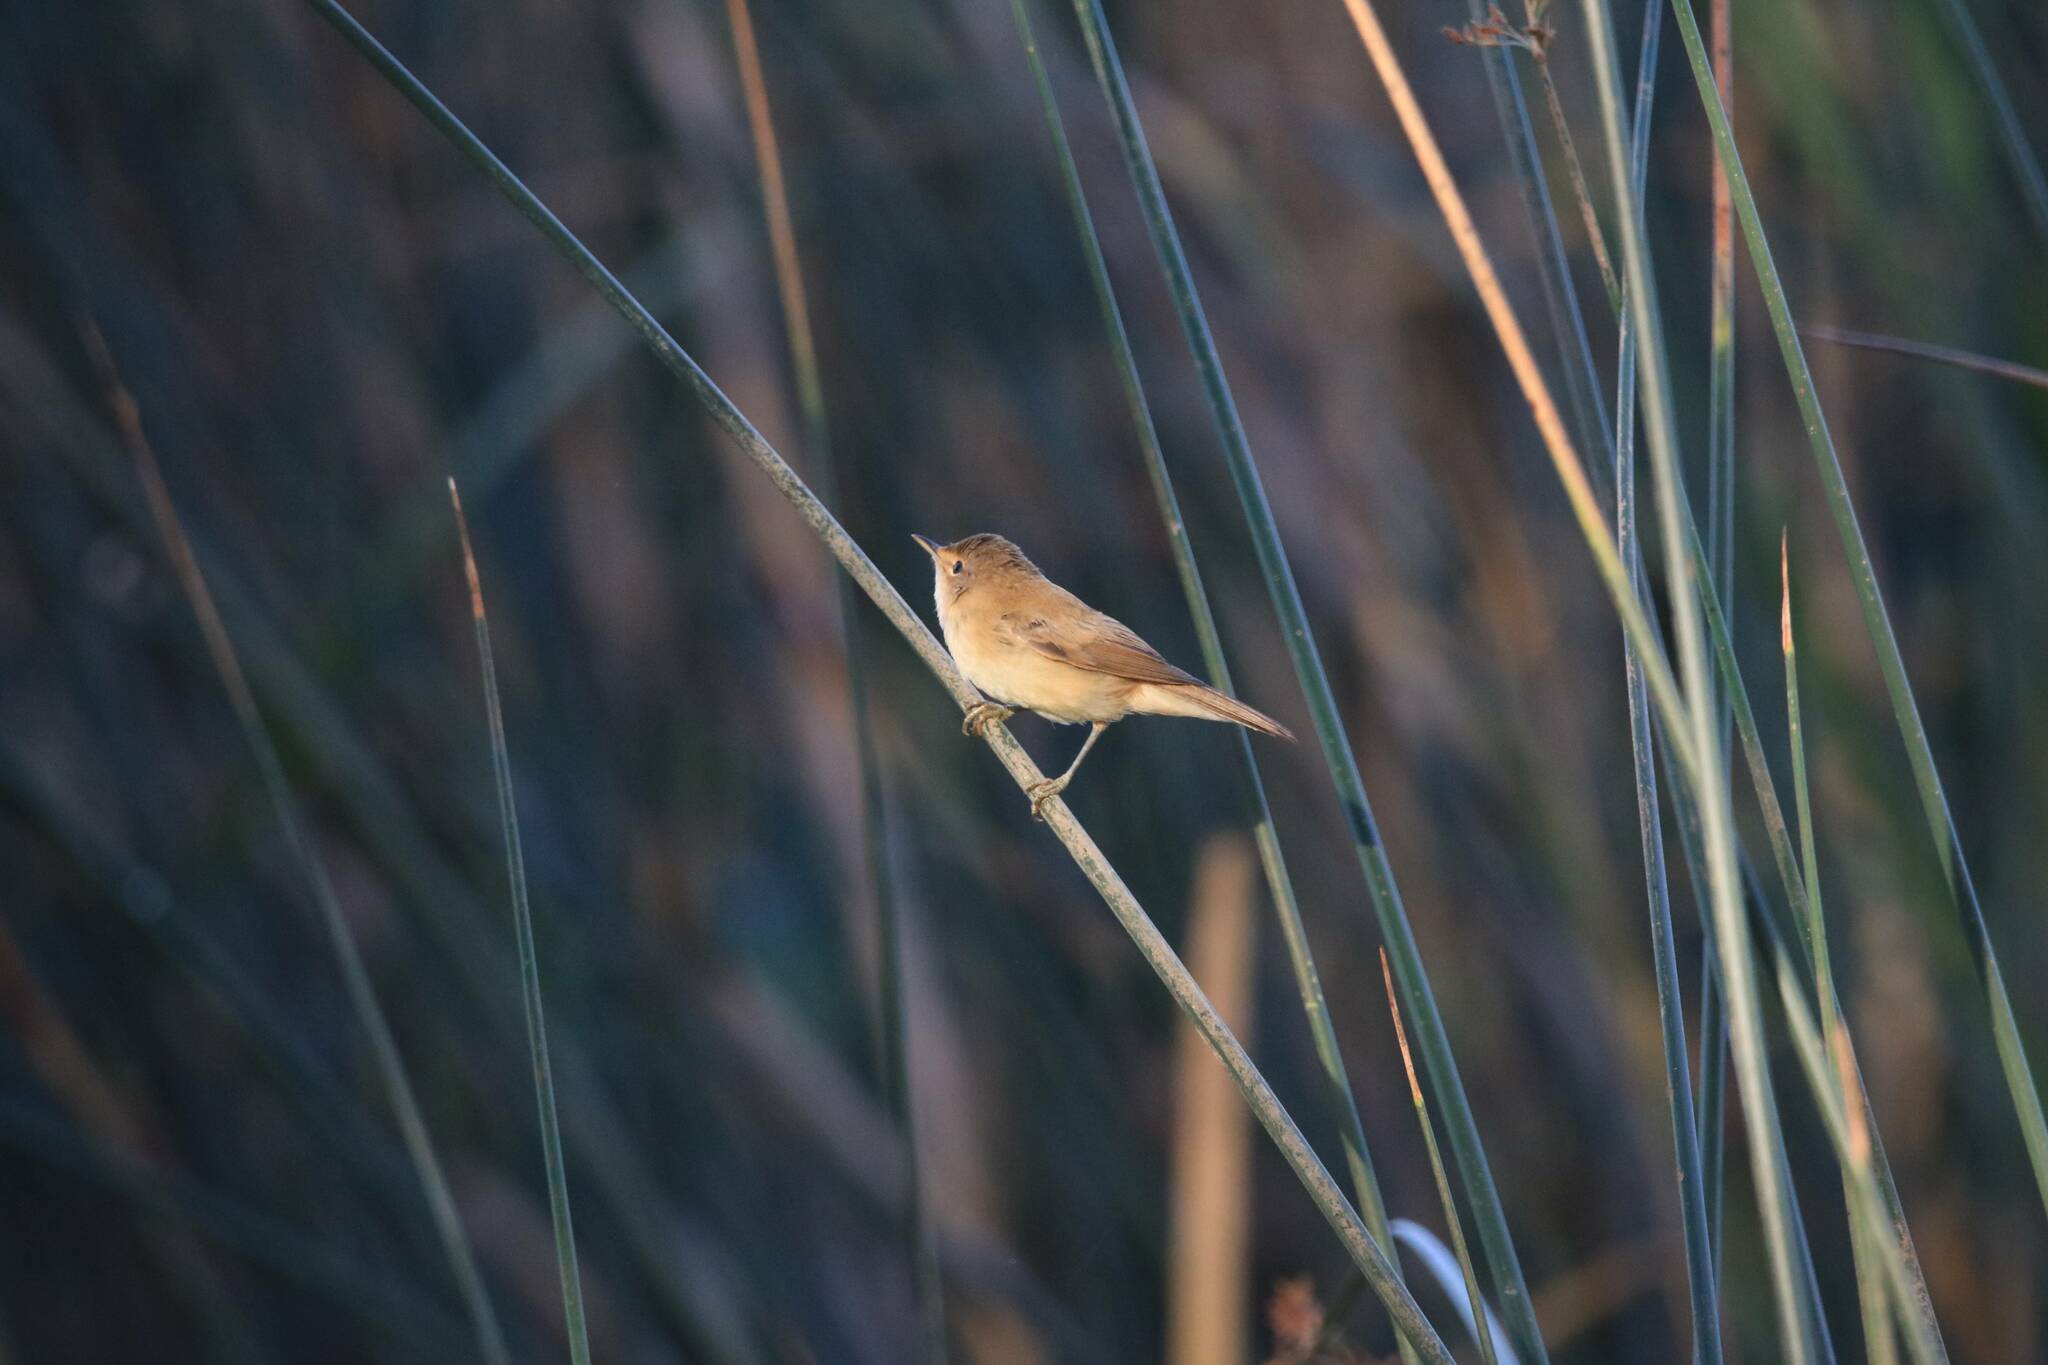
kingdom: Animalia
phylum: Chordata
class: Aves
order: Passeriformes
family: Acrocephalidae
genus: Acrocephalus
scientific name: Acrocephalus scirpaceus
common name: Eurasian reed warbler
